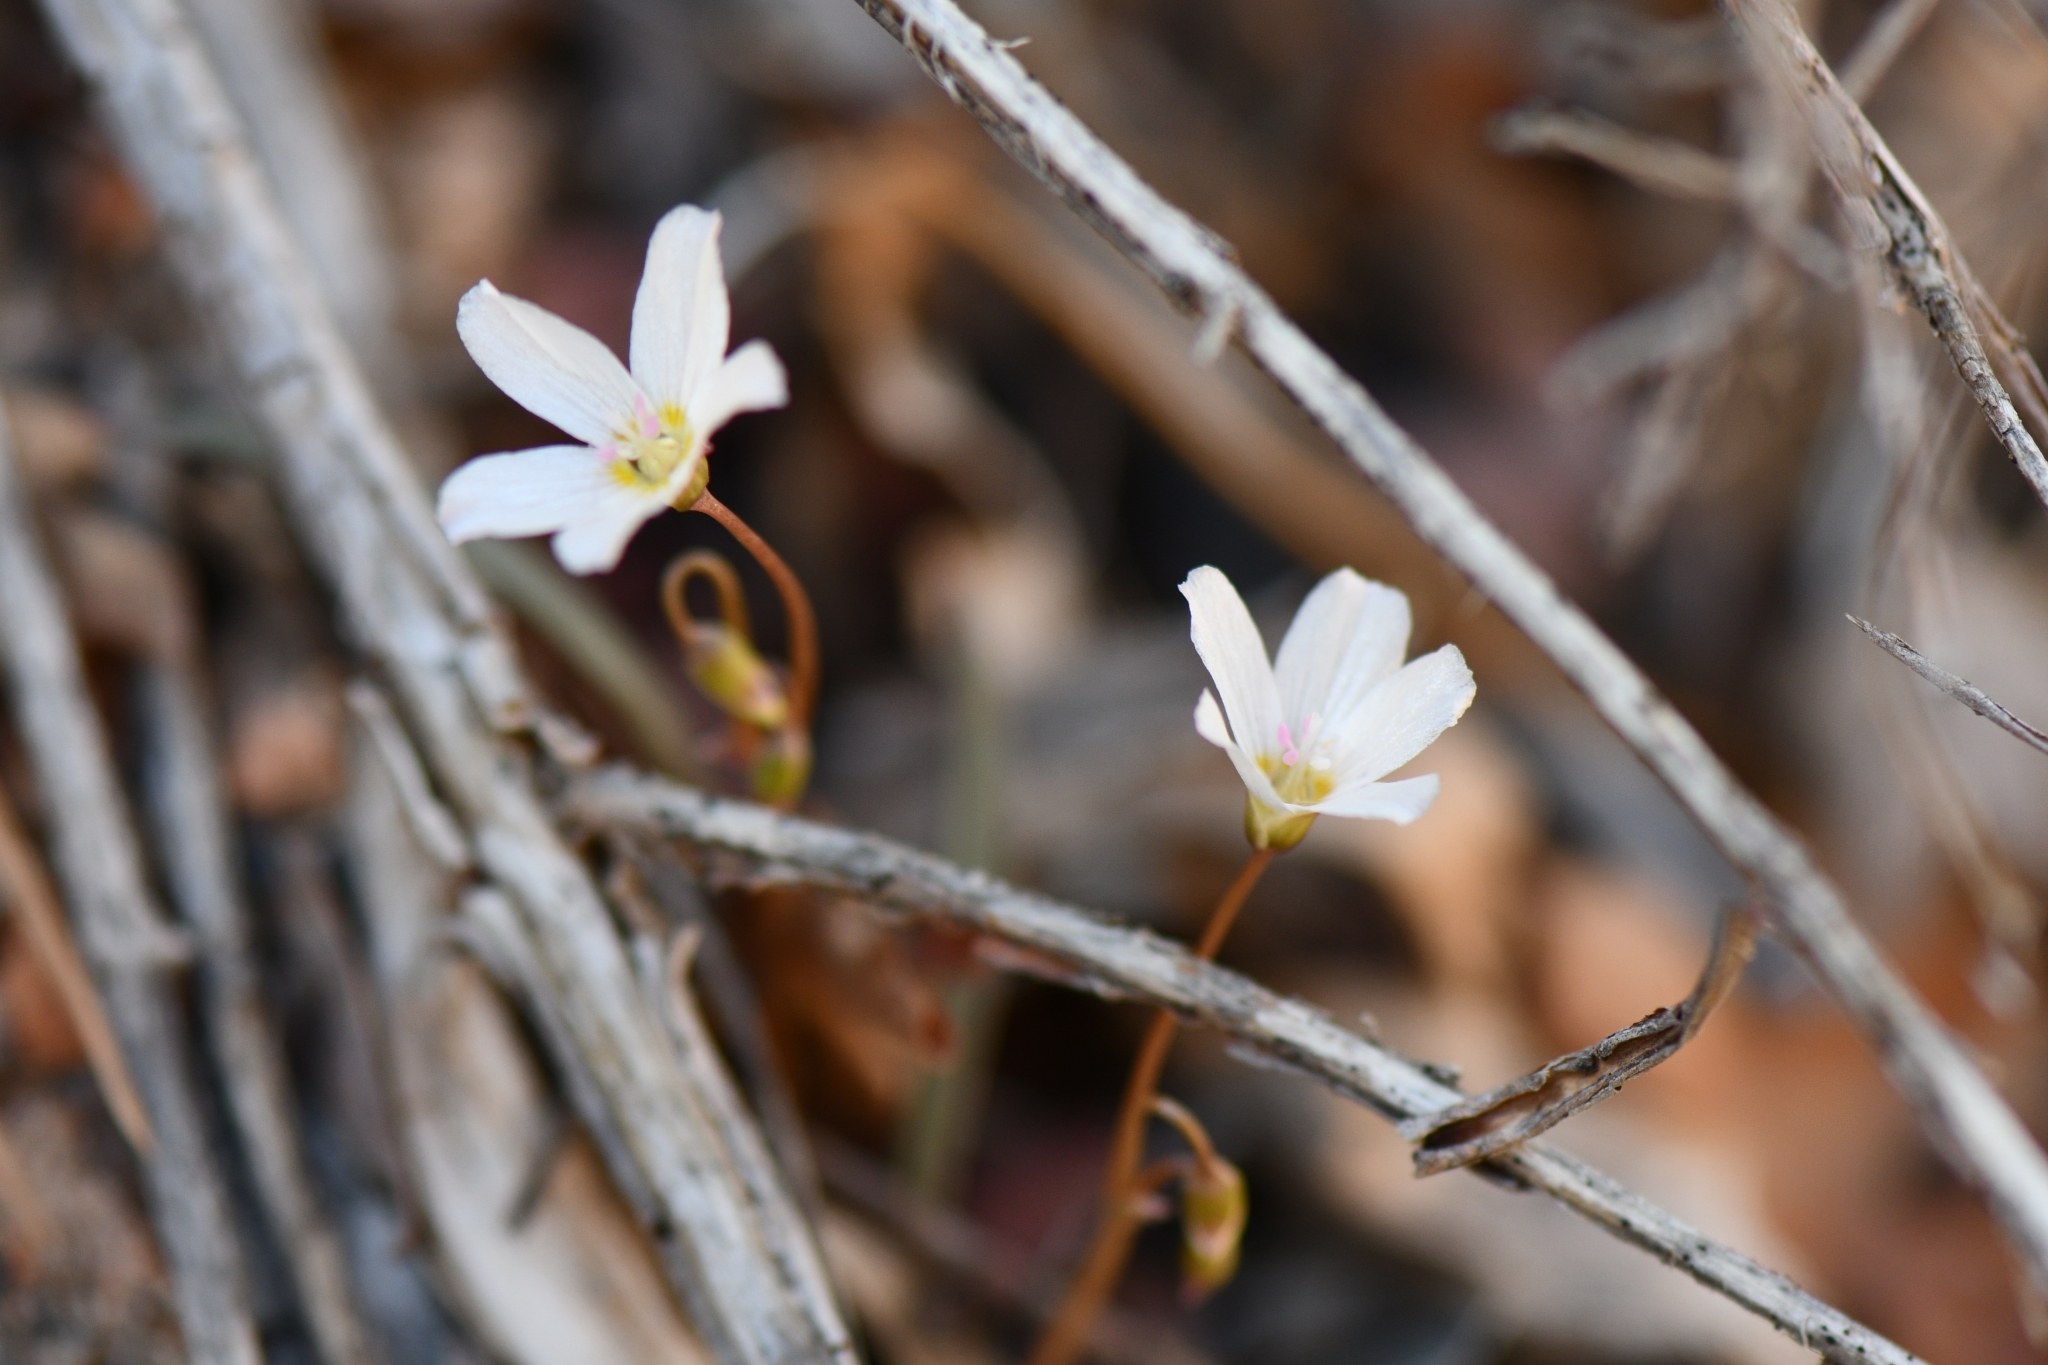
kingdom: Plantae
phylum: Tracheophyta
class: Magnoliopsida
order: Caryophyllales
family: Montiaceae
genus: Claytonia
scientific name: Claytonia rosea
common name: Rocky mountain spring-beauty
